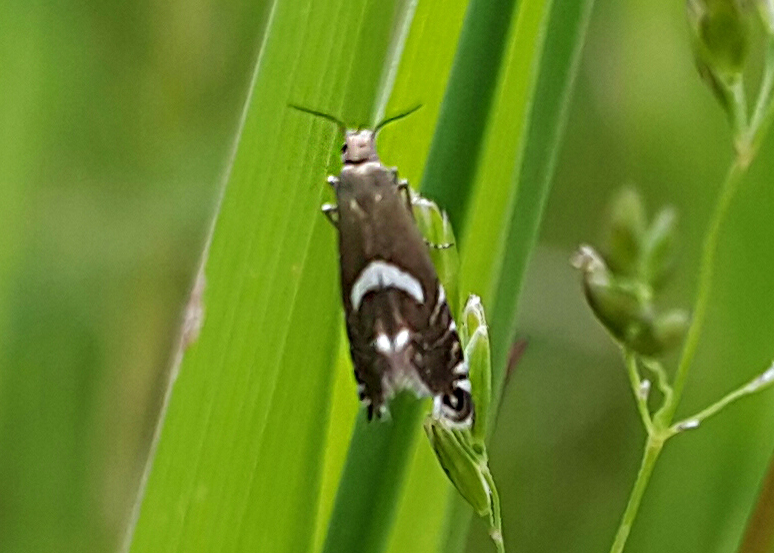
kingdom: Animalia
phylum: Arthropoda
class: Insecta
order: Lepidoptera
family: Glyphipterigidae
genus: Glyphipterix
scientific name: Glyphipterix forsterella
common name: Sedge fanner
